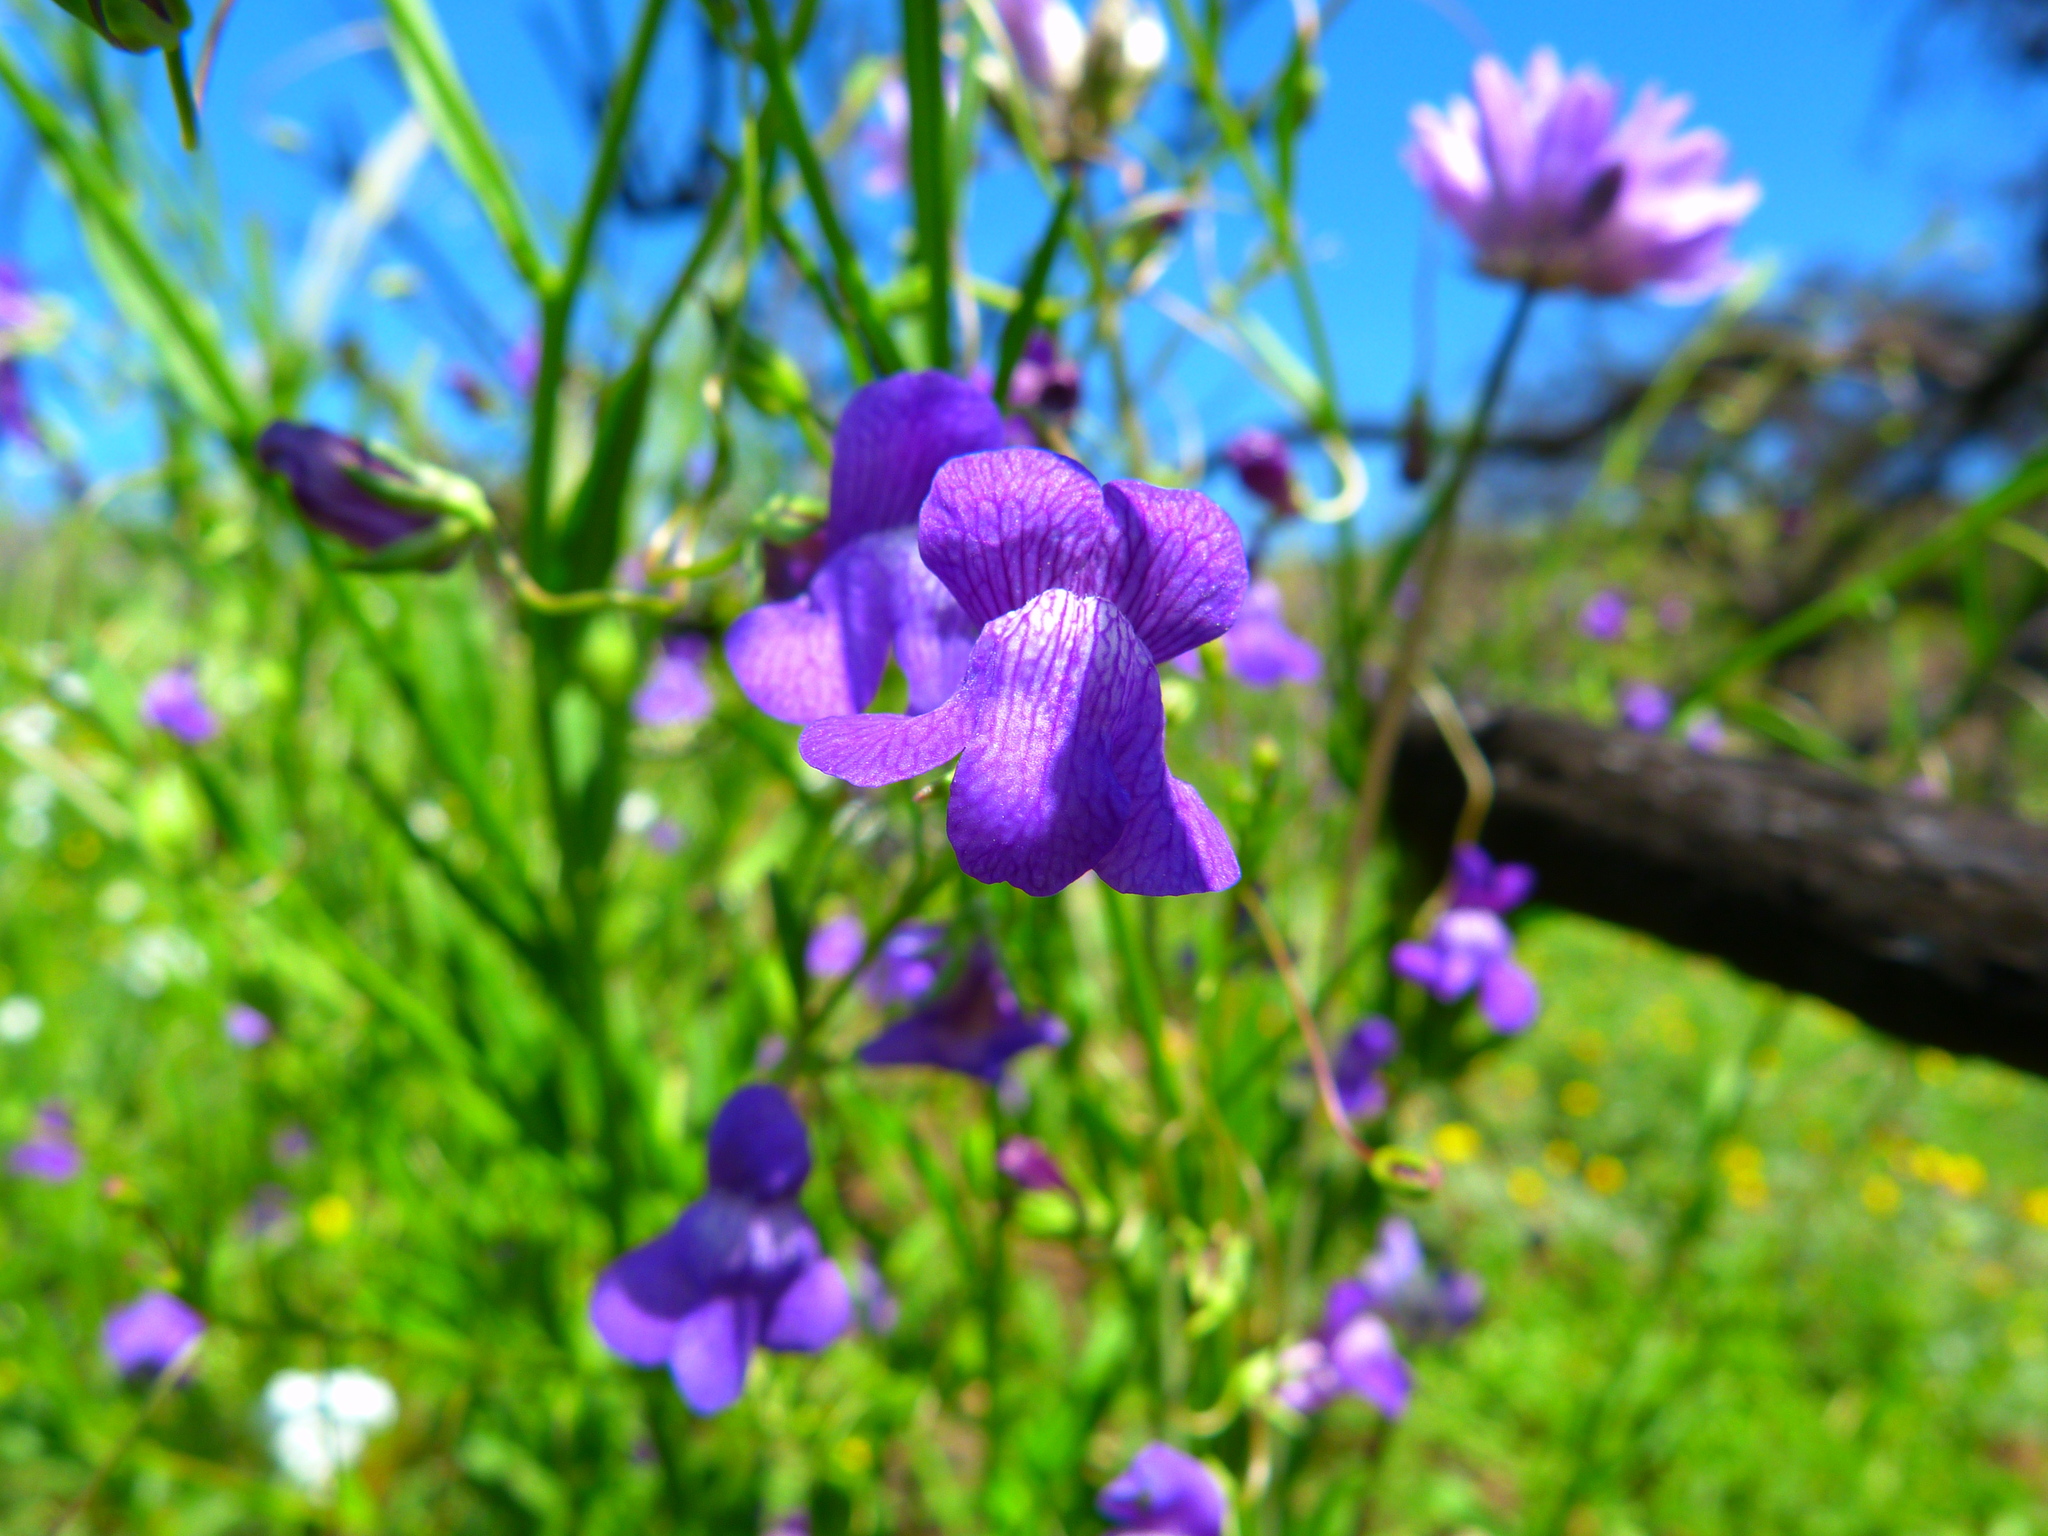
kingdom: Plantae
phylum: Tracheophyta
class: Magnoliopsida
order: Lamiales
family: Plantaginaceae
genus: Neogaerrhinum
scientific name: Neogaerrhinum strictum
